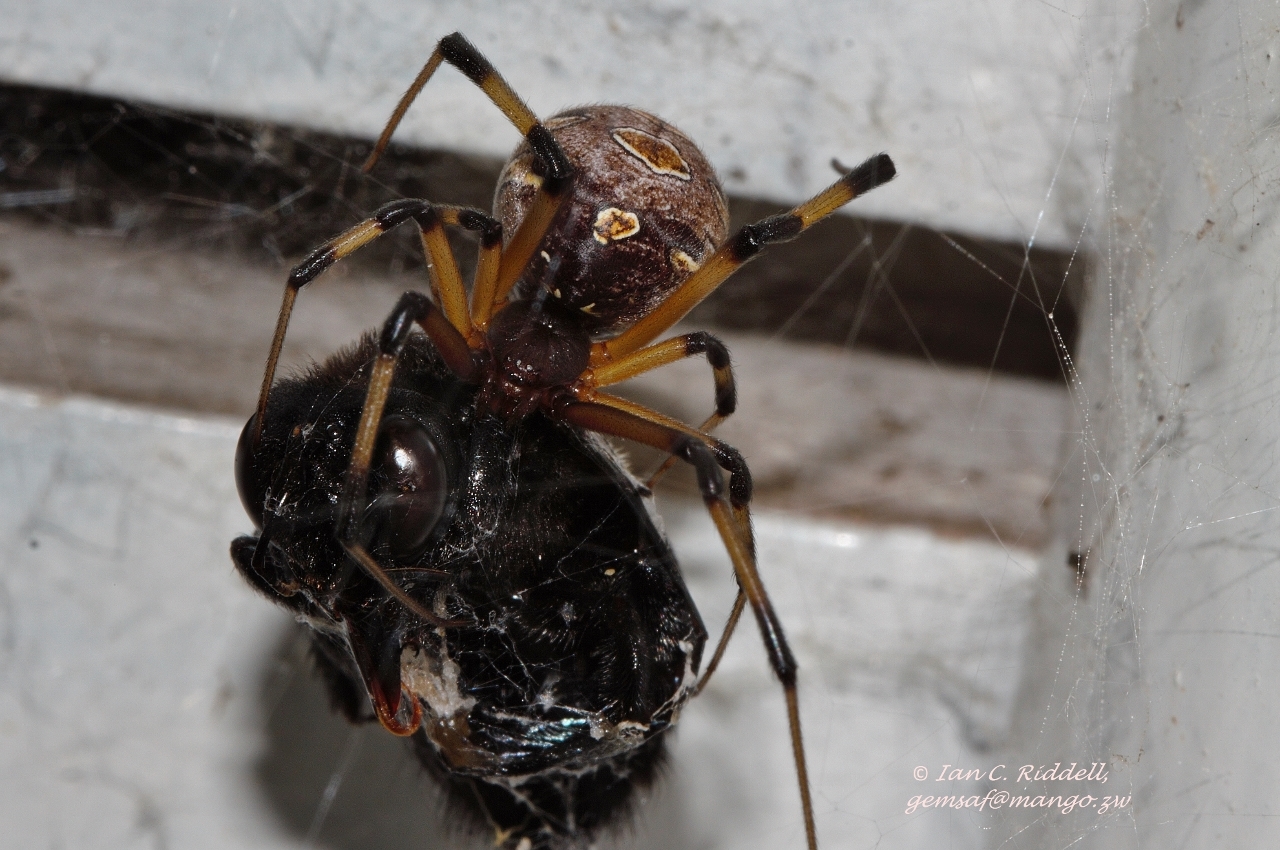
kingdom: Animalia
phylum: Arthropoda
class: Arachnida
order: Araneae
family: Theridiidae
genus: Latrodectus
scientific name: Latrodectus geometricus
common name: Brown widow spider
